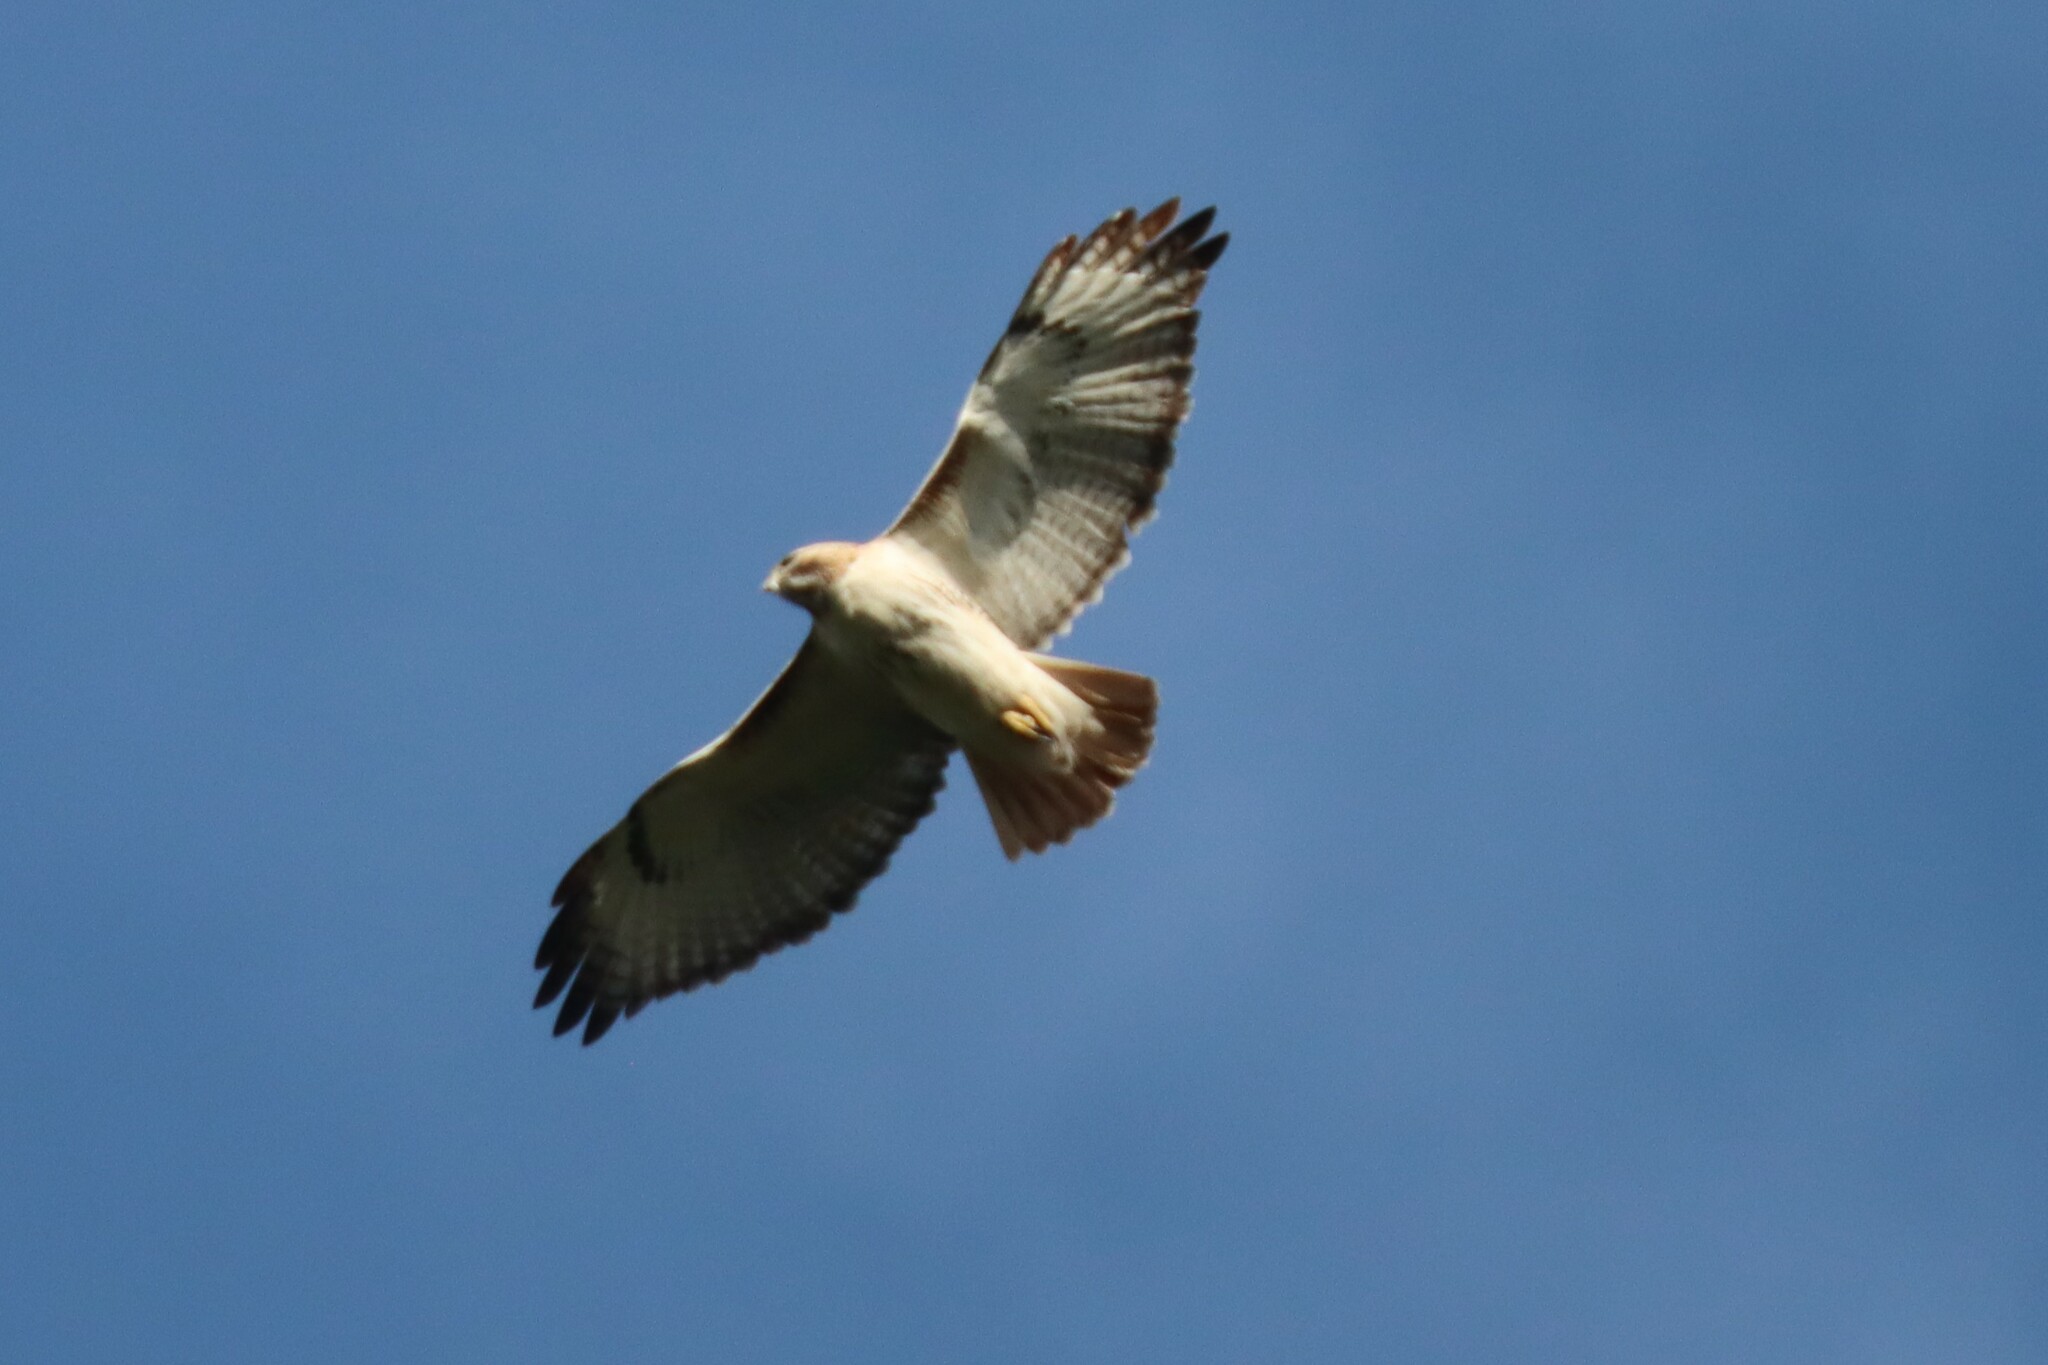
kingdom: Animalia
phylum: Chordata
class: Aves
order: Accipitriformes
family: Accipitridae
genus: Buteo
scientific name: Buteo jamaicensis
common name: Red-tailed hawk
